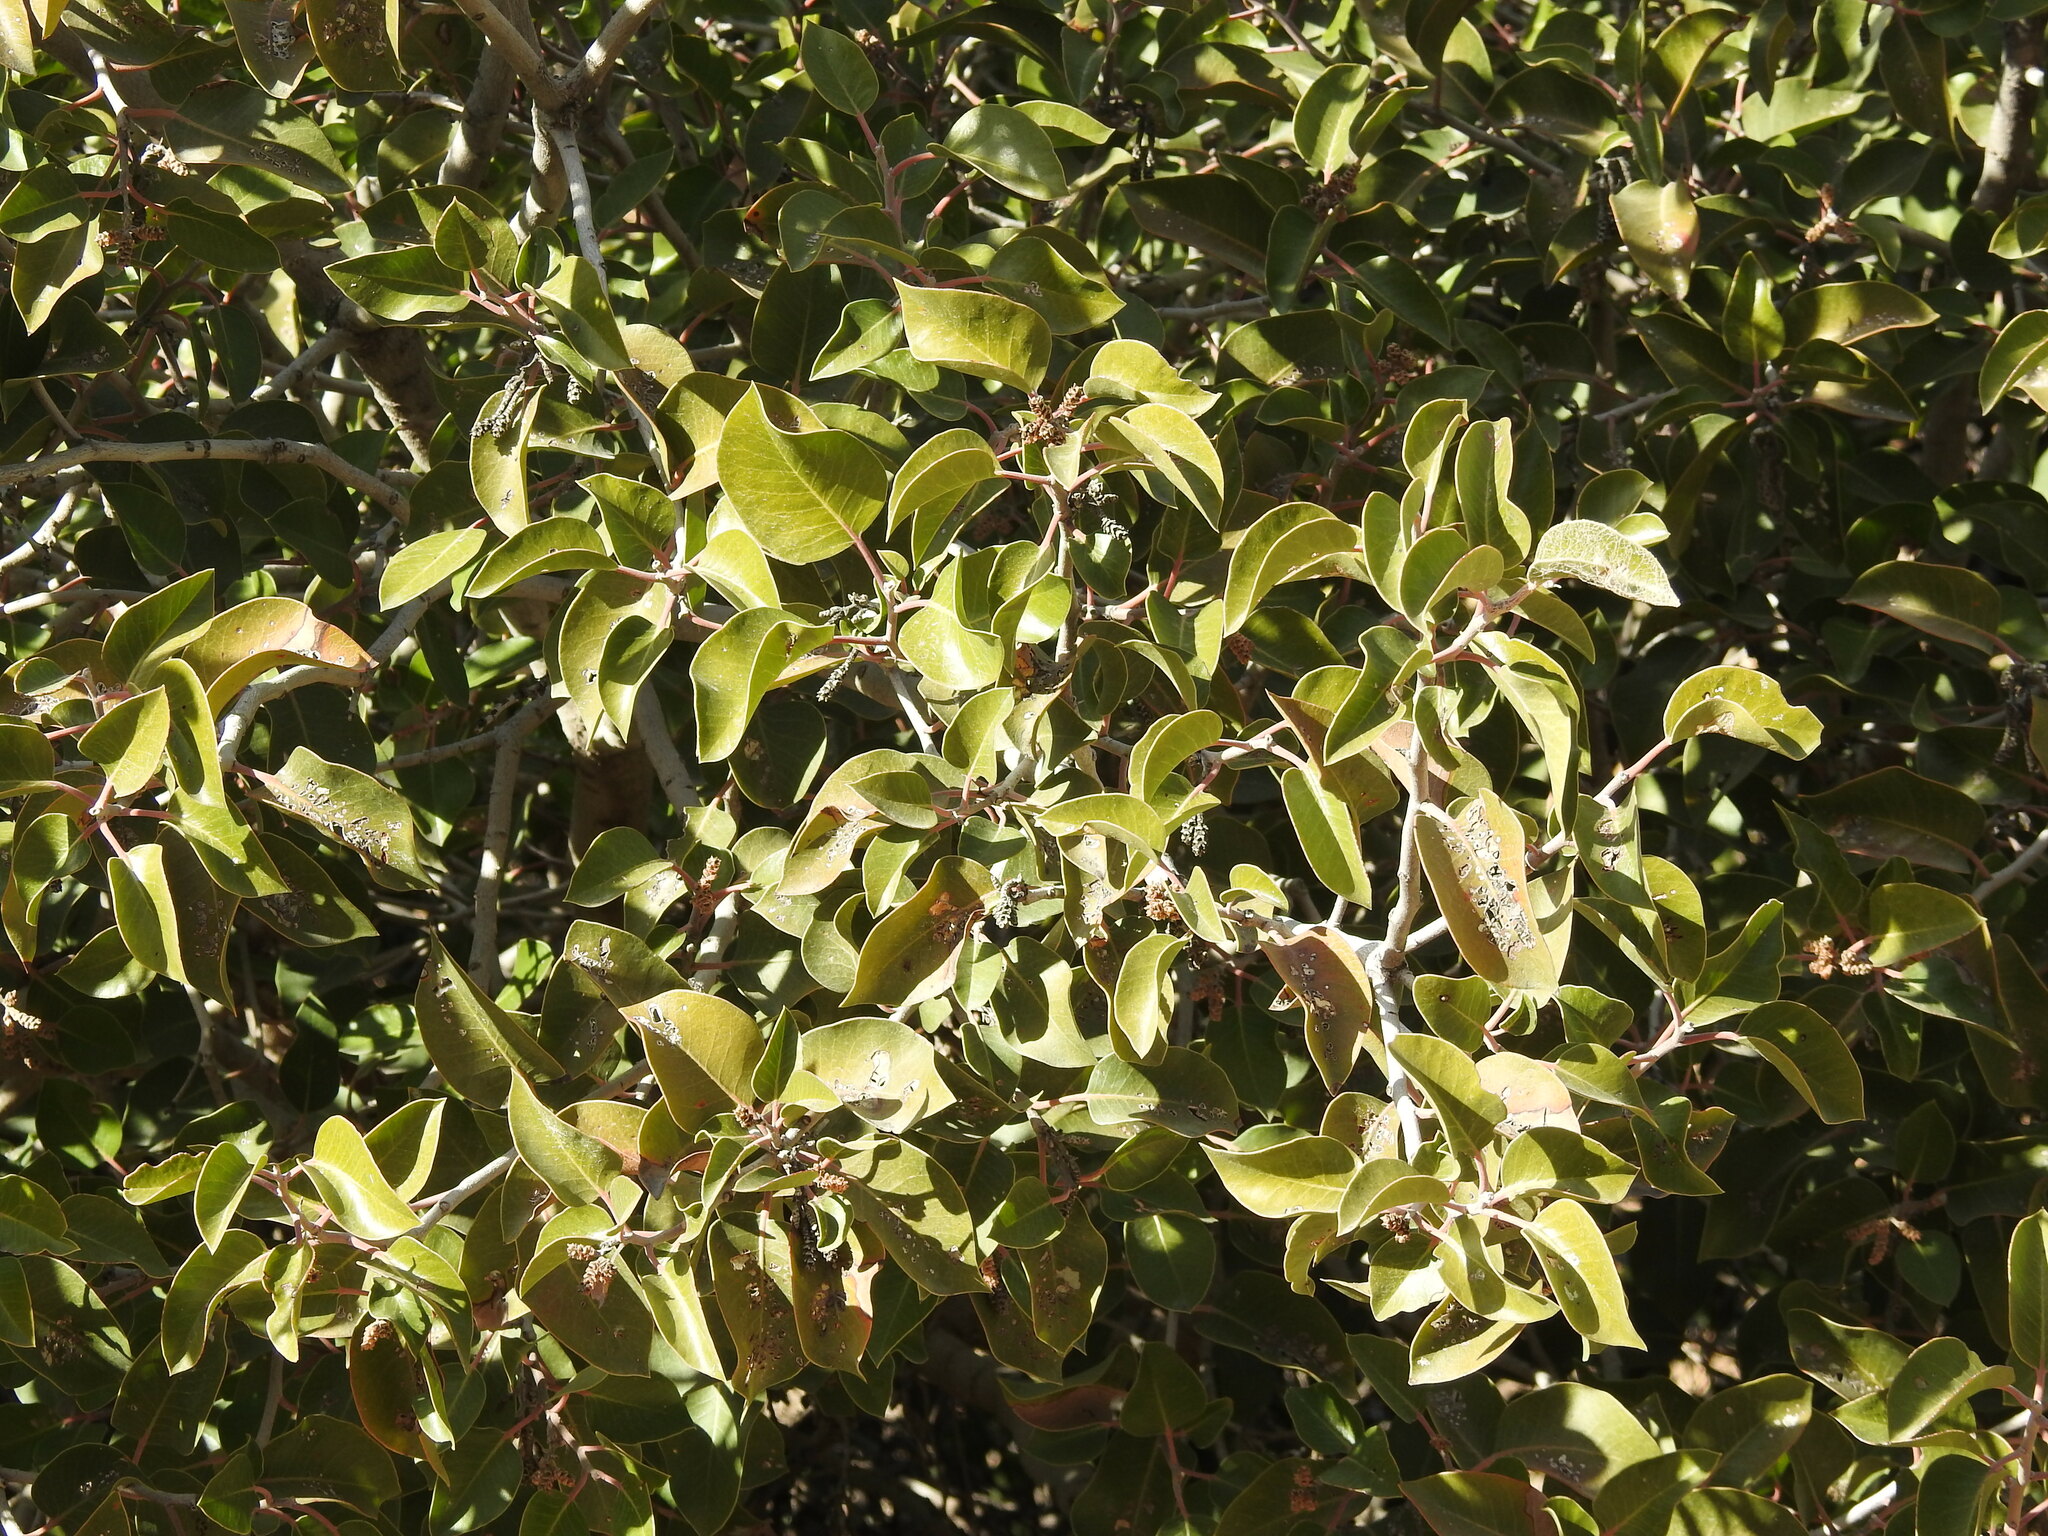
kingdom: Plantae
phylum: Tracheophyta
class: Magnoliopsida
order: Sapindales
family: Anacardiaceae
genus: Rhus
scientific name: Rhus ovata
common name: Sugar sumac
